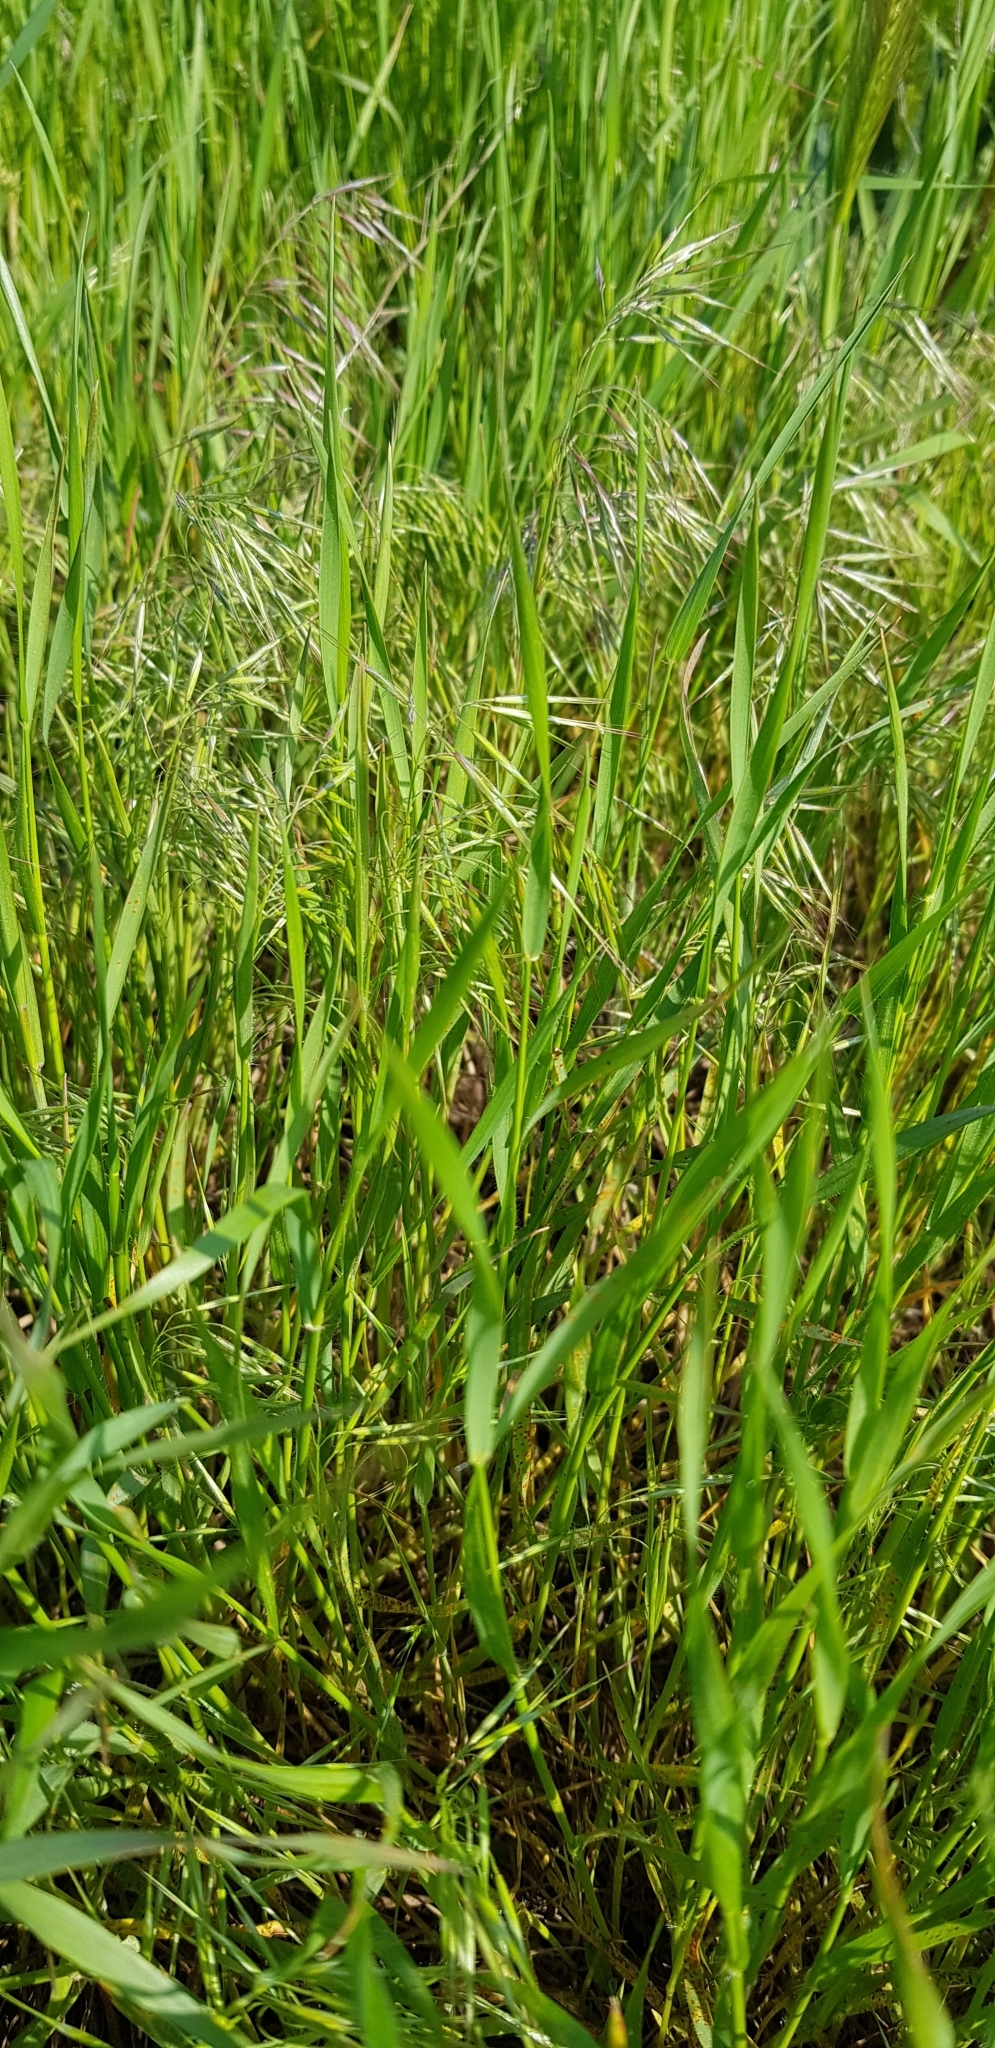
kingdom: Plantae
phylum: Tracheophyta
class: Liliopsida
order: Poales
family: Poaceae
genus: Bromus
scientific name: Bromus tectorum
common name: Cheatgrass
